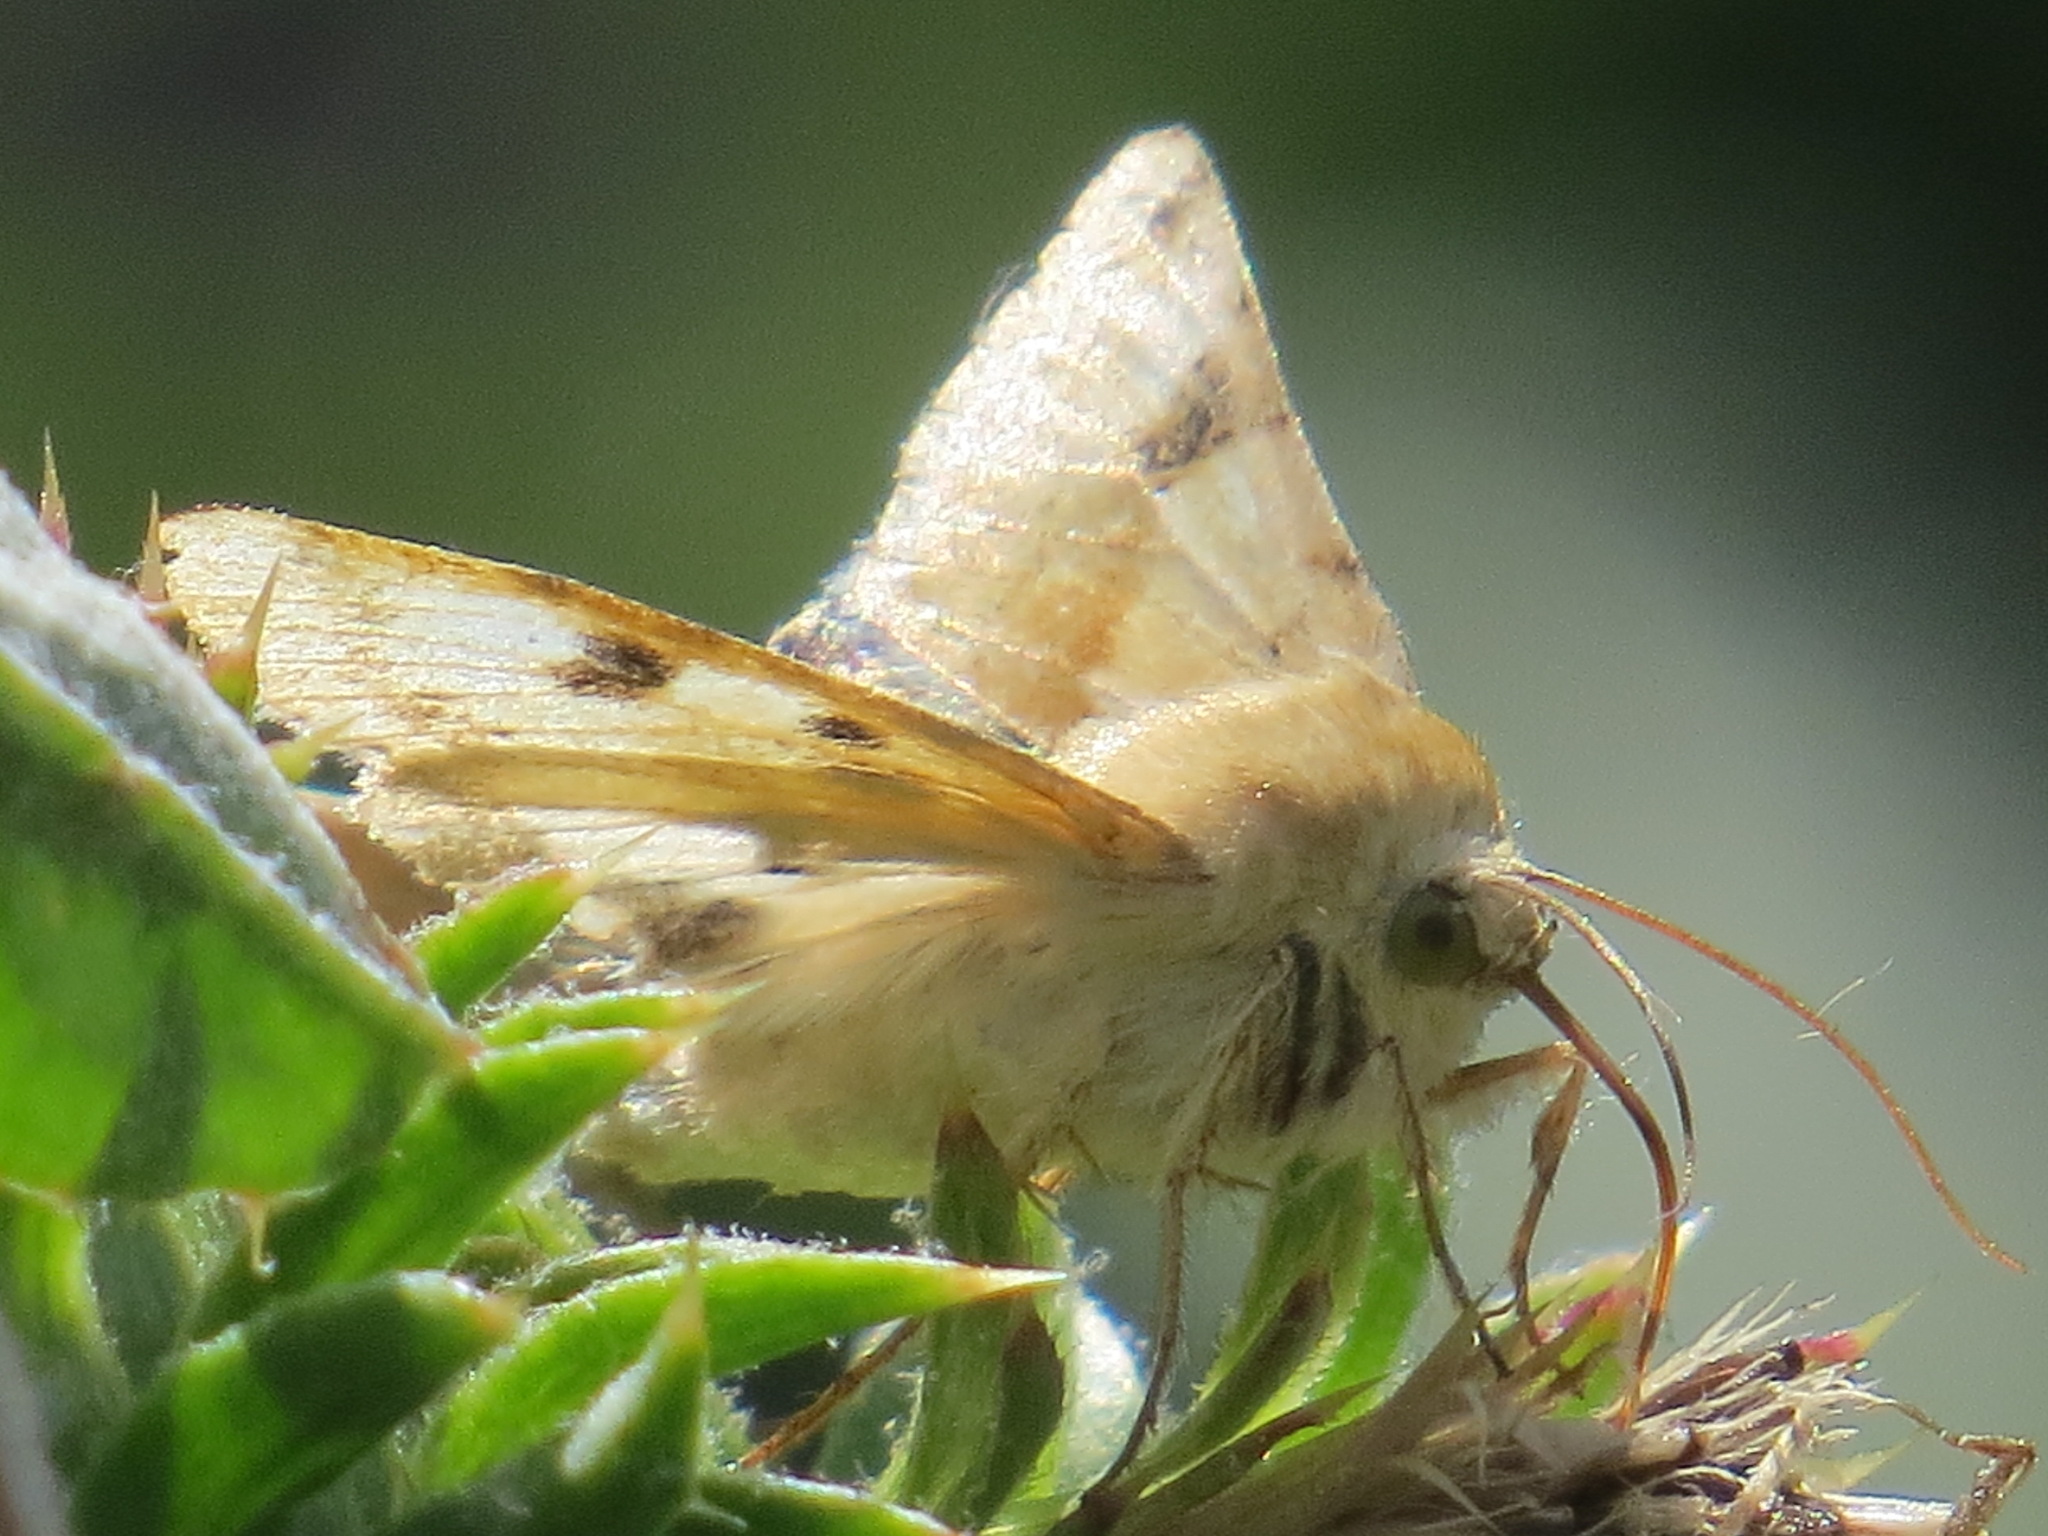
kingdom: Animalia
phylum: Arthropoda
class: Insecta
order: Lepidoptera
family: Noctuidae
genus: Heliothis
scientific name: Heliothis phloxiphaga
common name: Darker spotted straw moth
